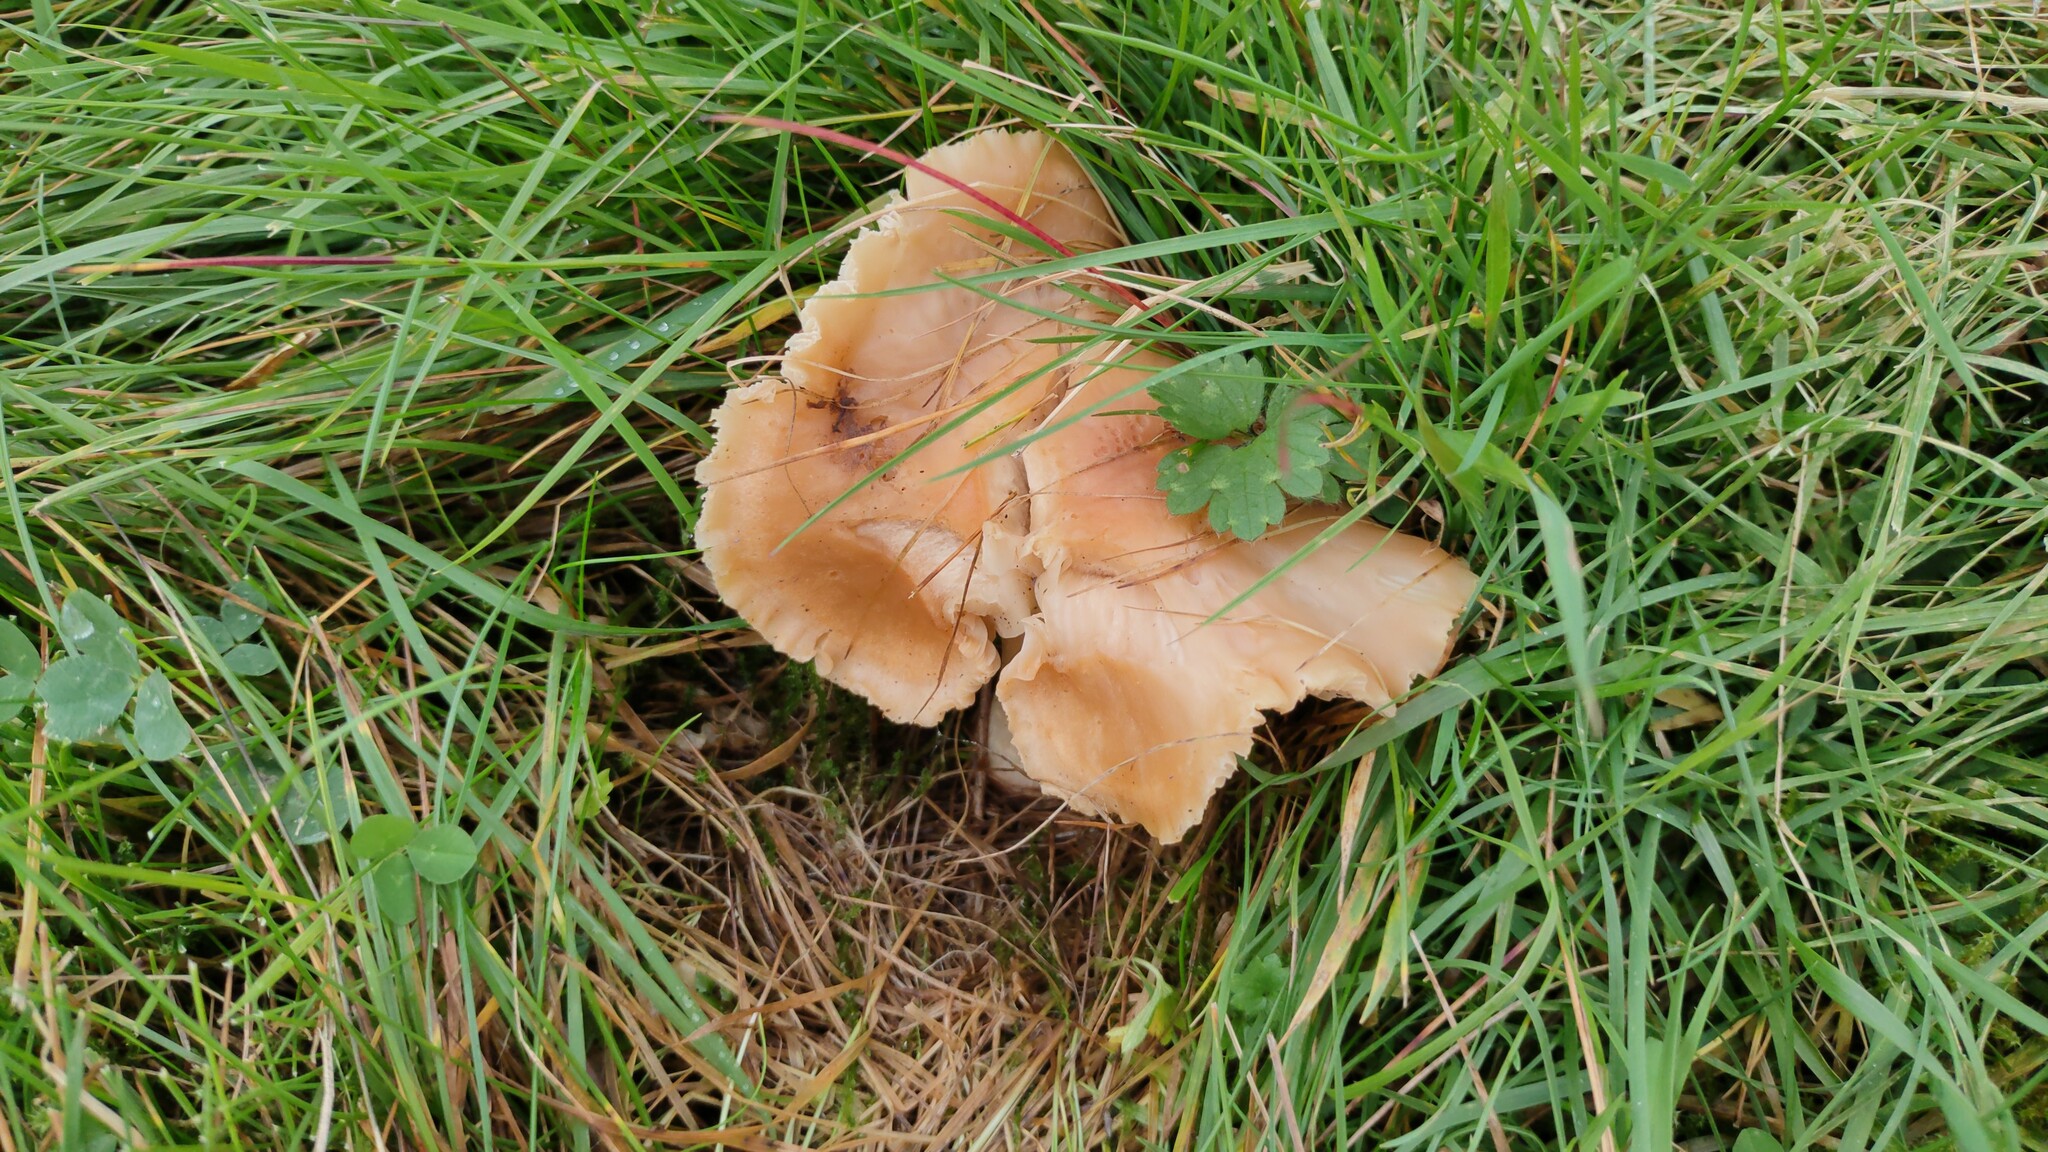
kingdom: Fungi
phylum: Basidiomycota
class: Agaricomycetes
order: Agaricales
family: Hygrophoraceae
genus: Cuphophyllus
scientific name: Cuphophyllus pratensis
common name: Meadow waxcap
